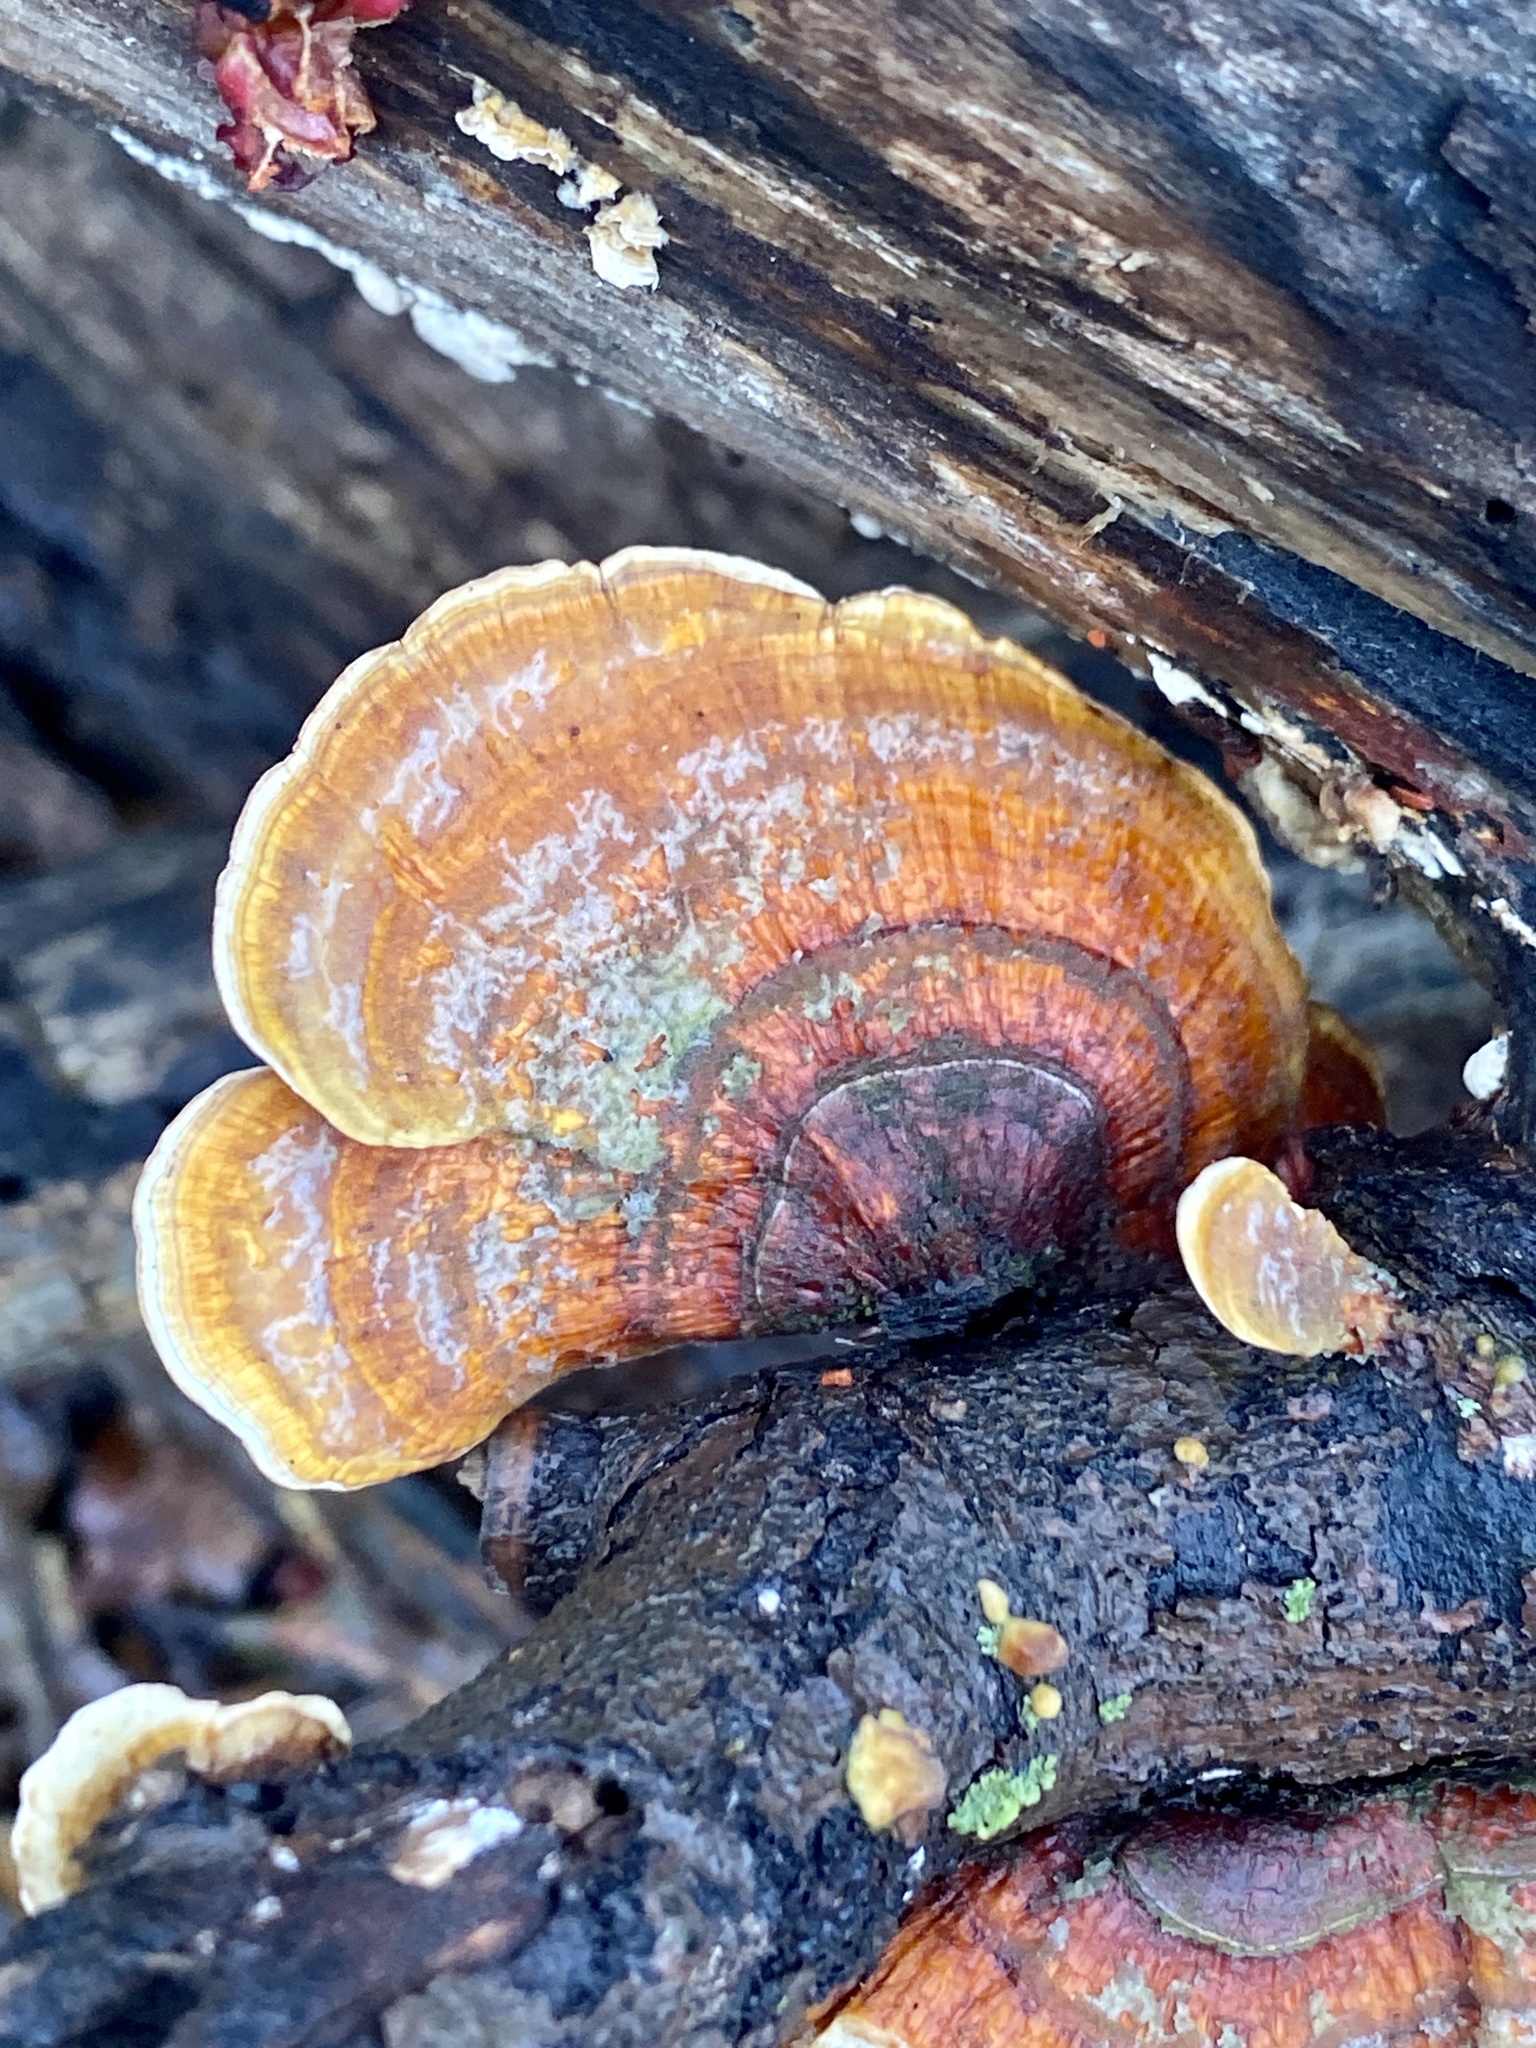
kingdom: Fungi
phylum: Basidiomycota
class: Agaricomycetes
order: Russulales
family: Stereaceae
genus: Stereum
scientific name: Stereum lobatum
